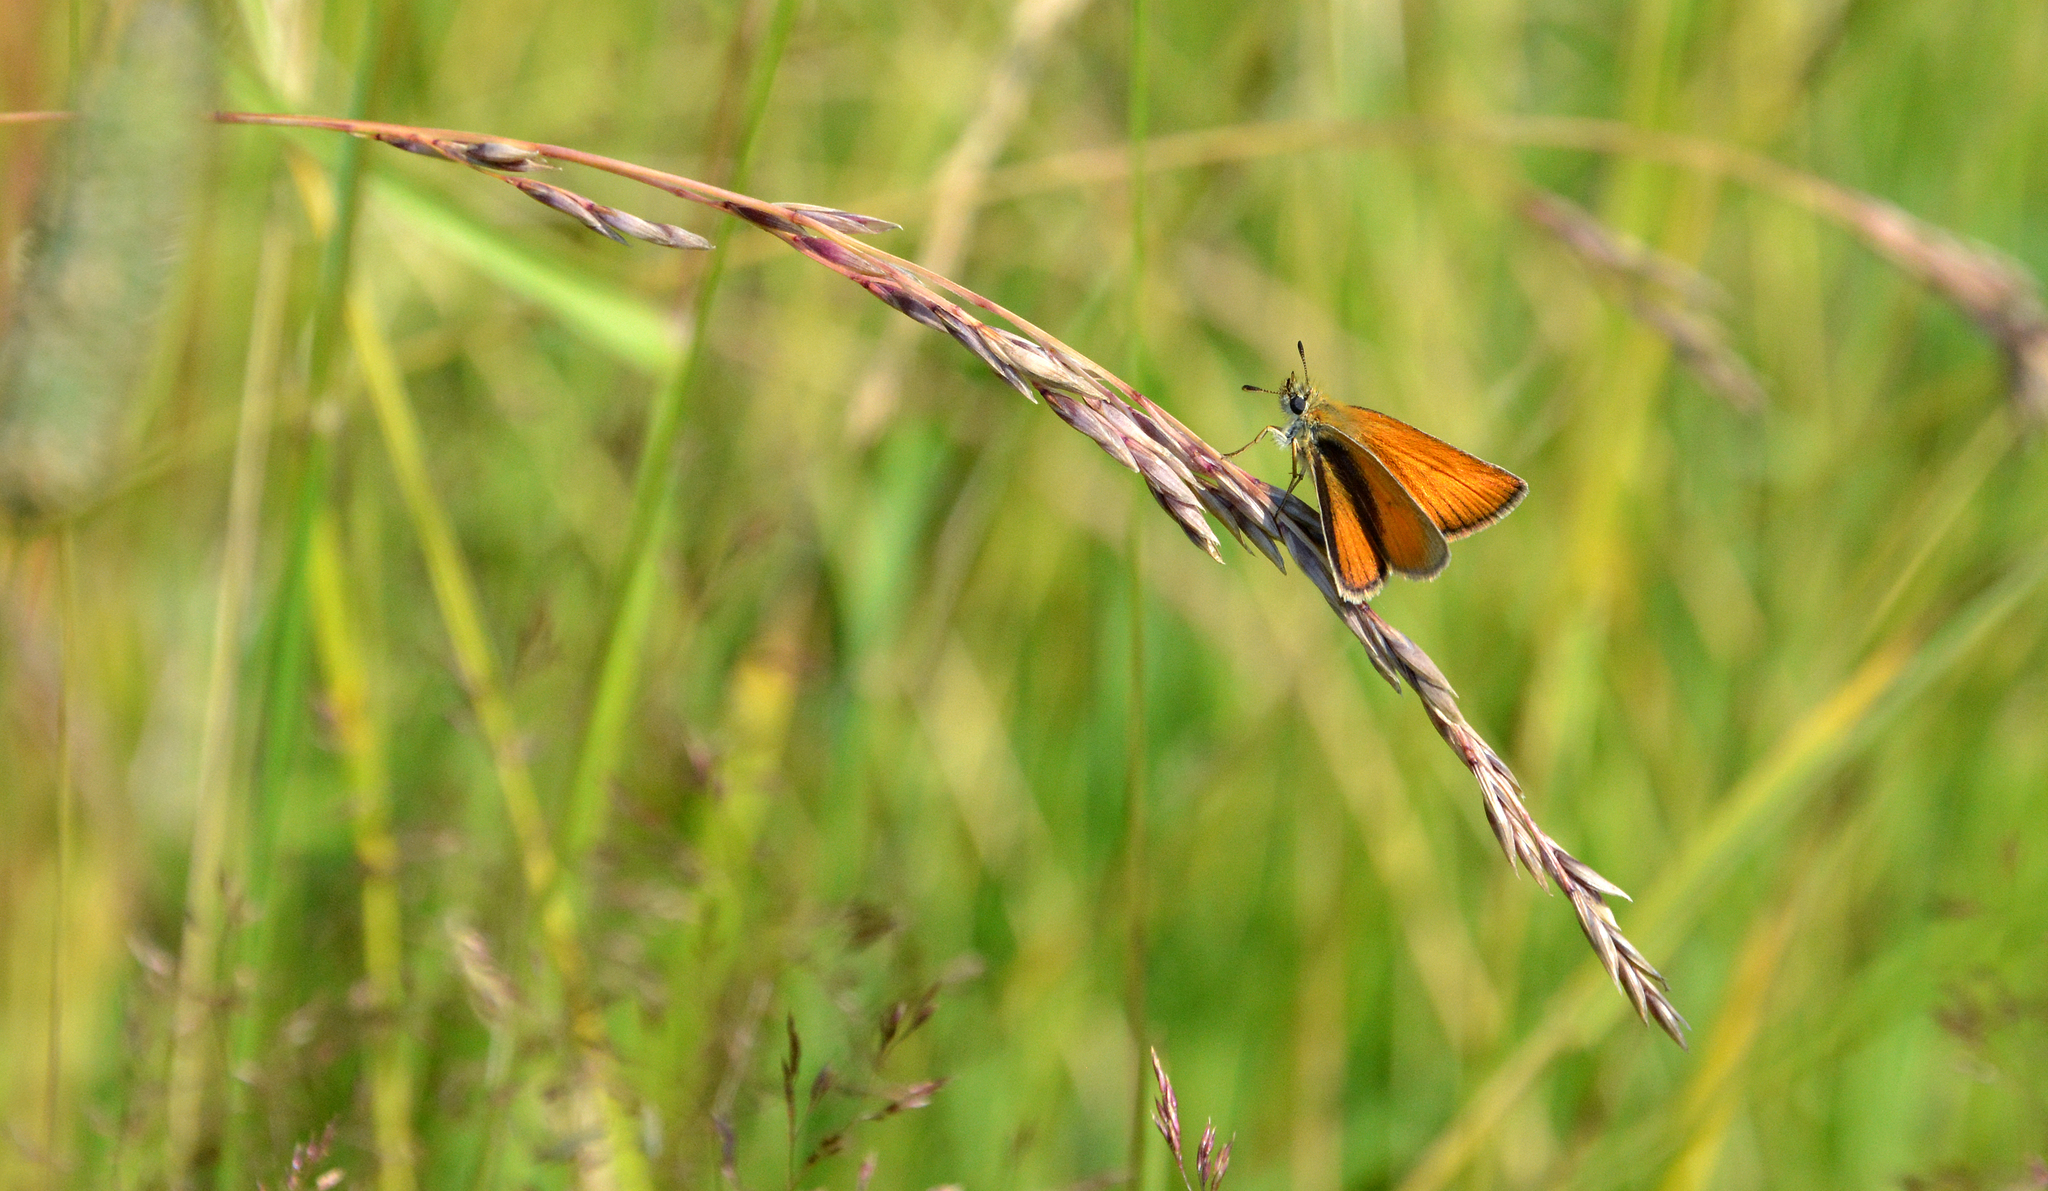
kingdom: Animalia
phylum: Arthropoda
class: Insecta
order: Lepidoptera
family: Hesperiidae
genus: Thymelicus
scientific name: Thymelicus lineola
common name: Essex skipper
